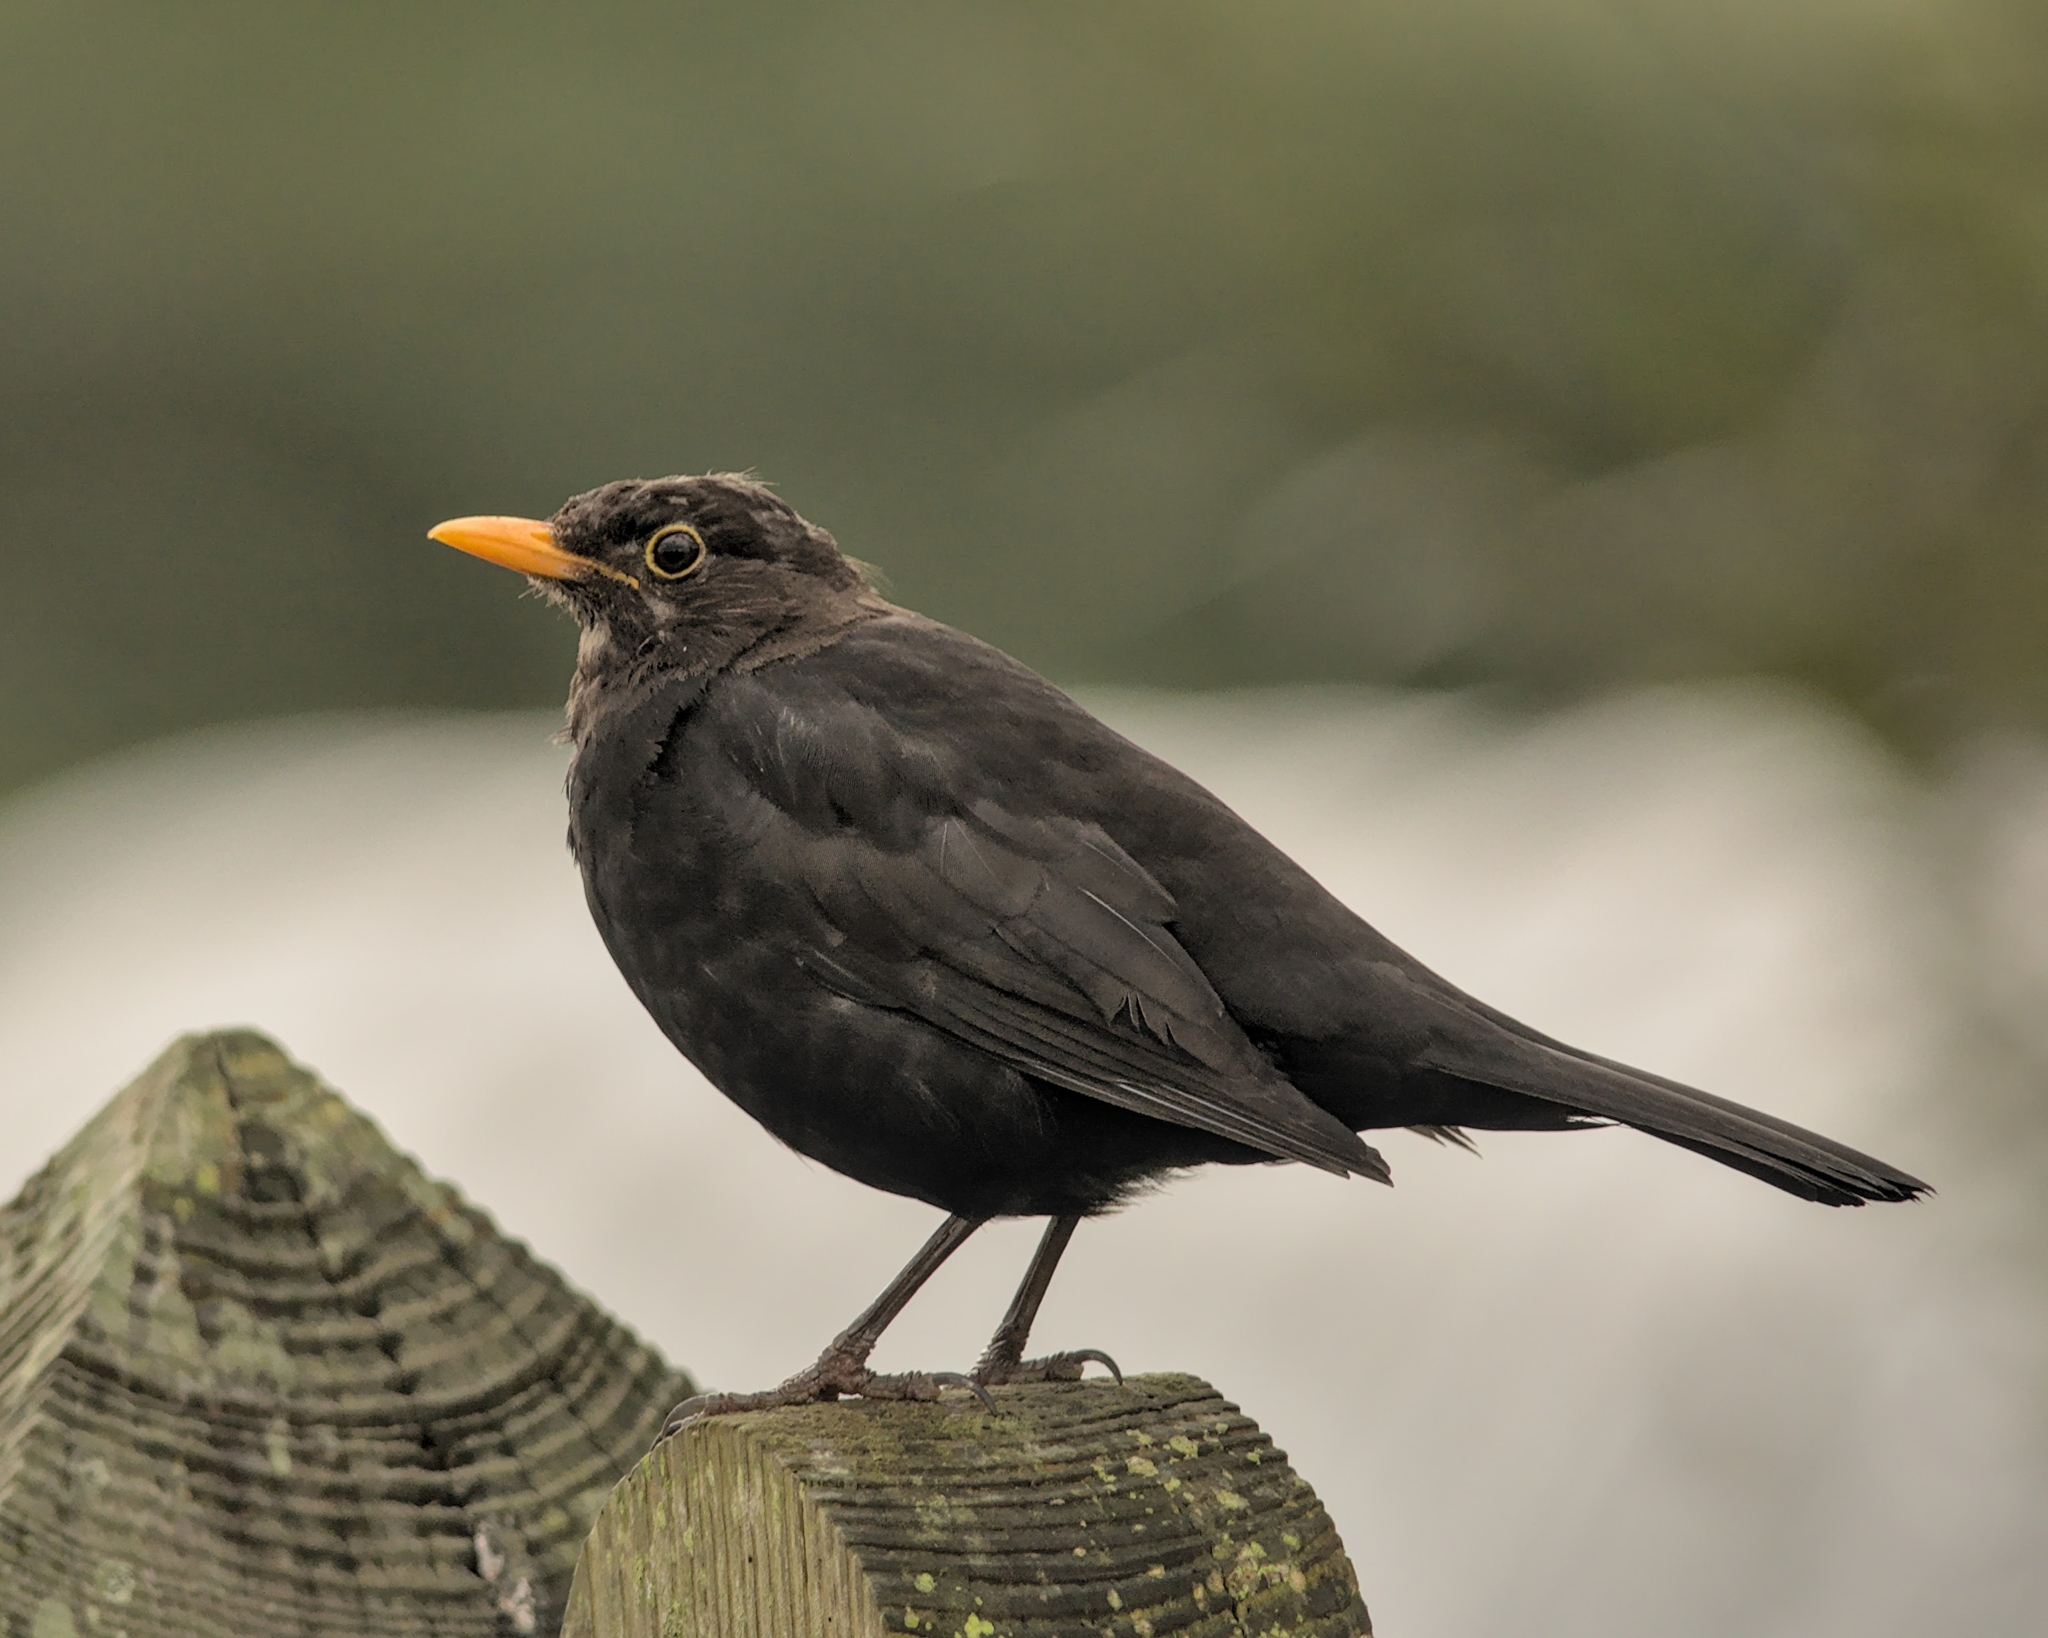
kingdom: Animalia
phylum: Chordata
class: Aves
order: Passeriformes
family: Turdidae
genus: Turdus
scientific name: Turdus merula
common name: Common blackbird
